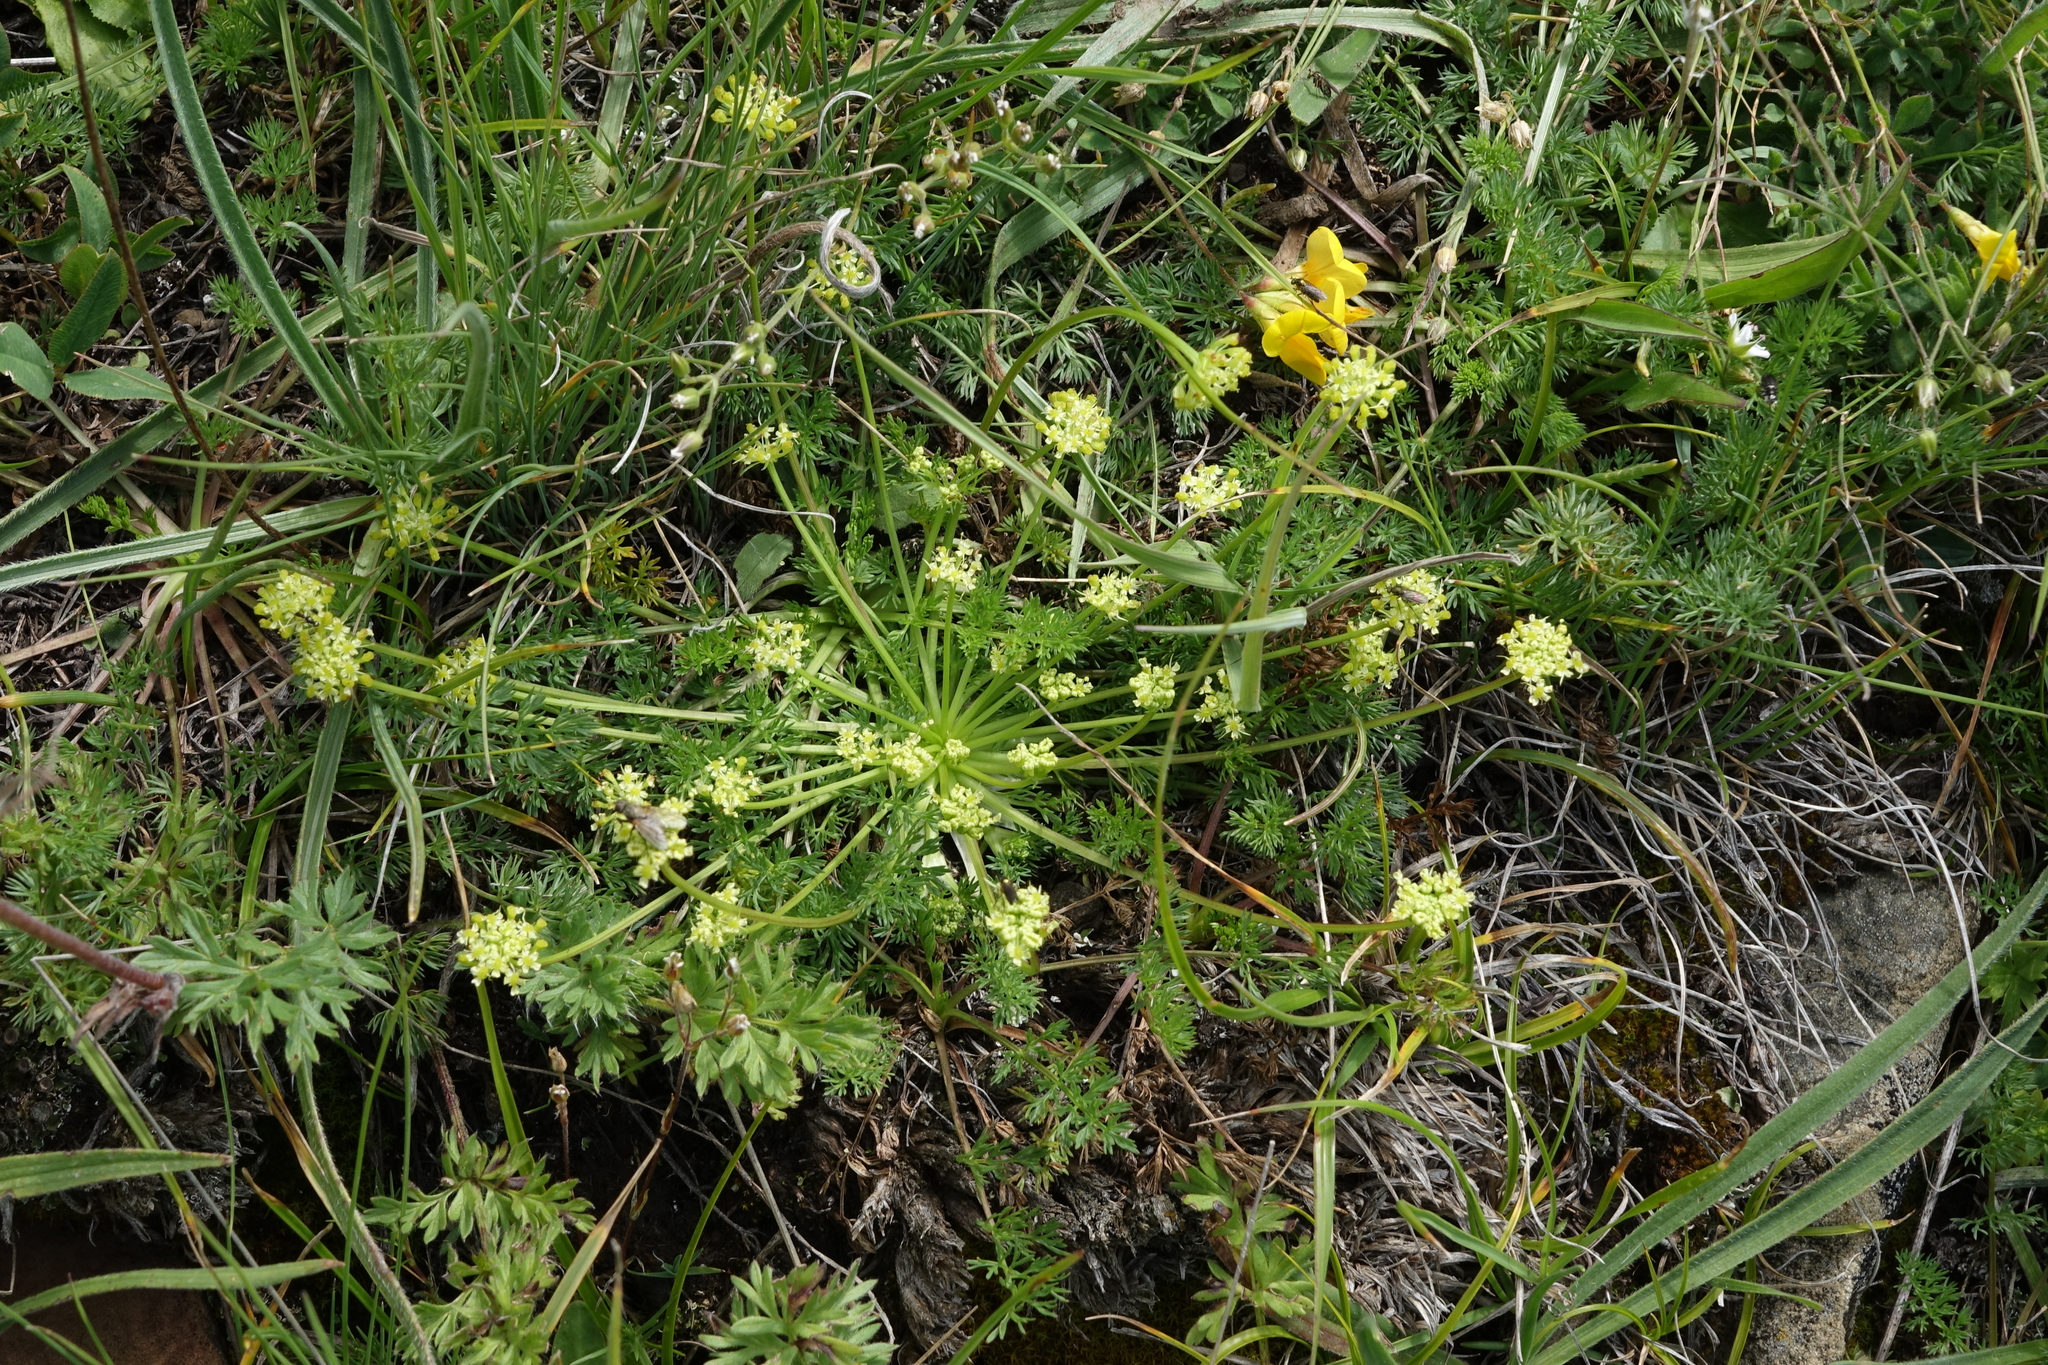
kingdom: Plantae
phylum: Tracheophyta
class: Magnoliopsida
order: Apiales
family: Apiaceae
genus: Chamaesciadium
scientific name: Chamaesciadium acaule
